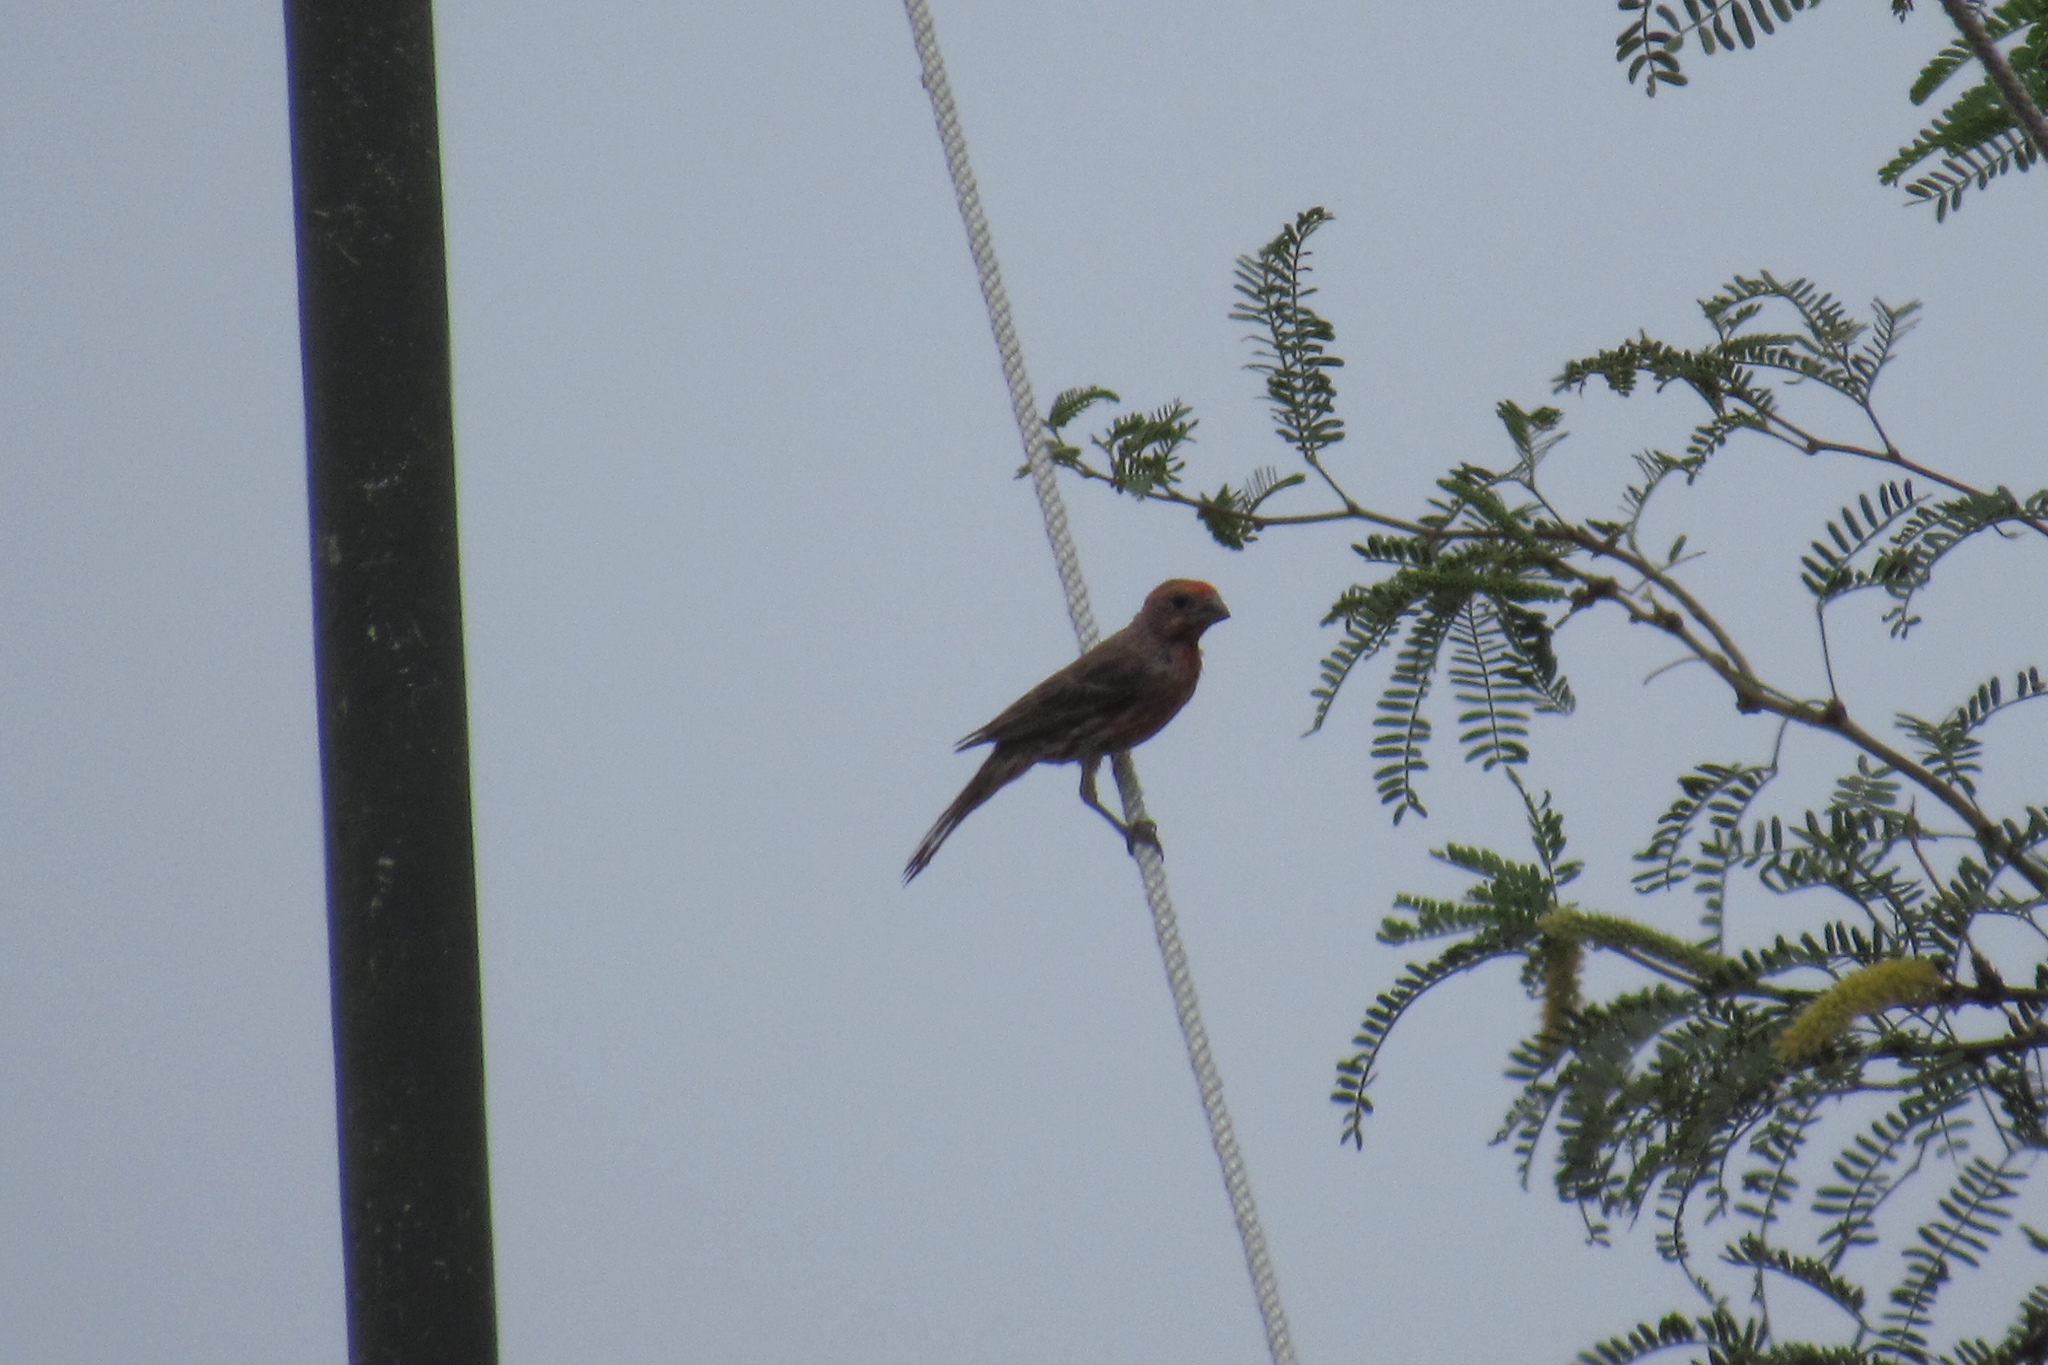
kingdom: Animalia
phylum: Chordata
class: Aves
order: Passeriformes
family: Fringillidae
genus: Haemorhous
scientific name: Haemorhous mexicanus
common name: House finch
